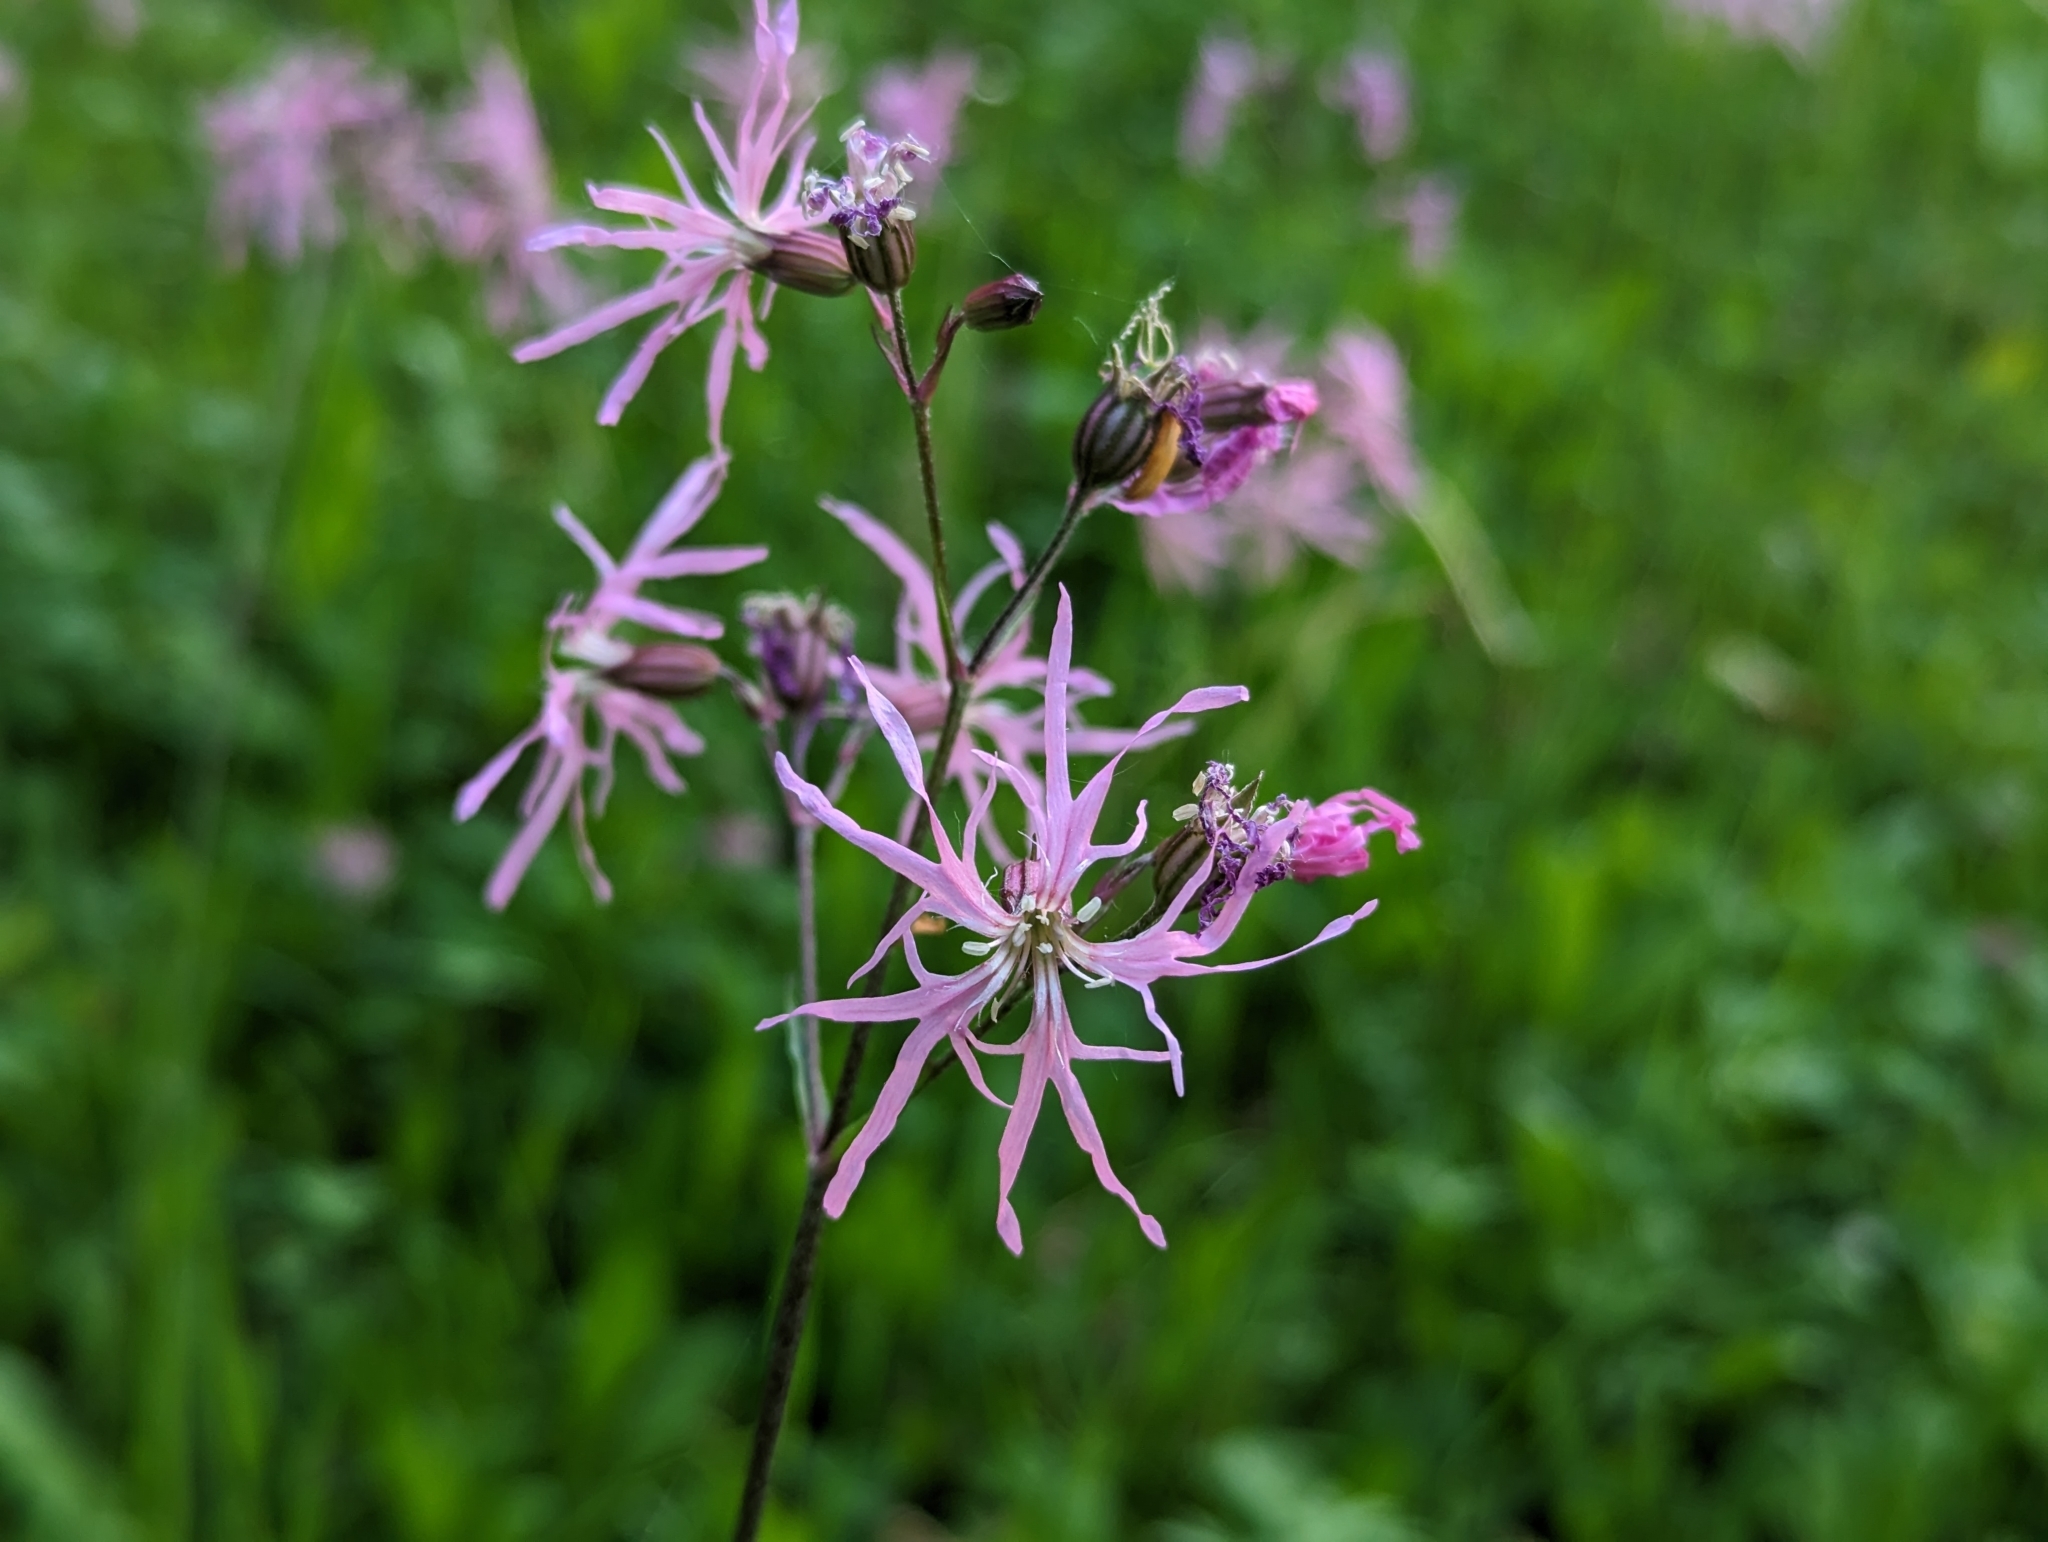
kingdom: Plantae
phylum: Tracheophyta
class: Magnoliopsida
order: Caryophyllales
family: Caryophyllaceae
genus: Silene
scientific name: Silene flos-cuculi
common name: Ragged-robin
